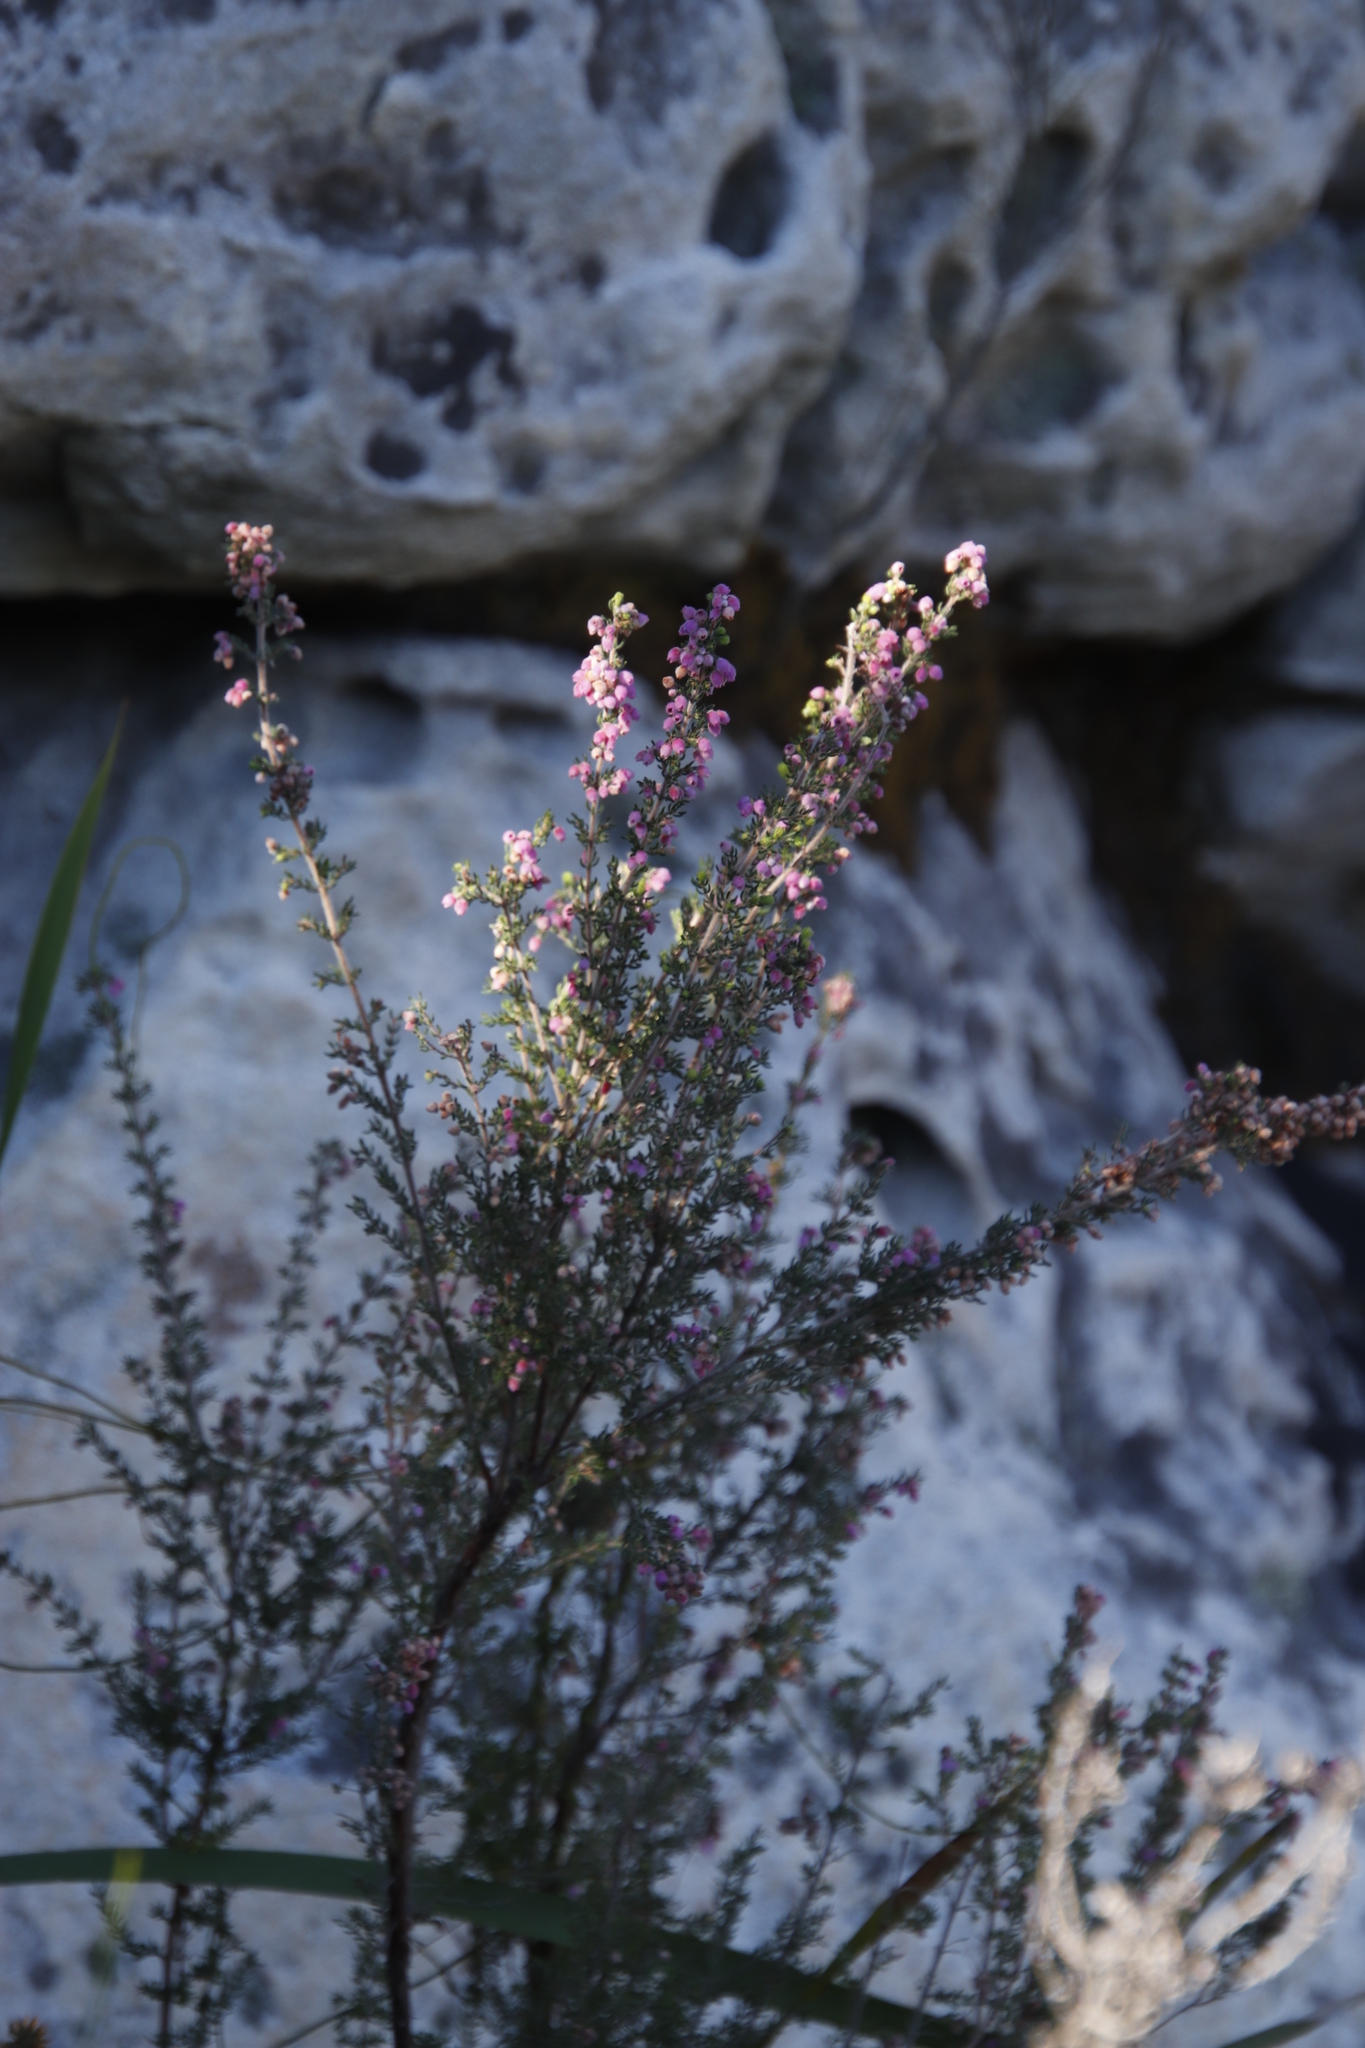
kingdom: Plantae
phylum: Tracheophyta
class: Magnoliopsida
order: Ericales
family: Ericaceae
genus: Erica
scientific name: Erica hirtiflora
